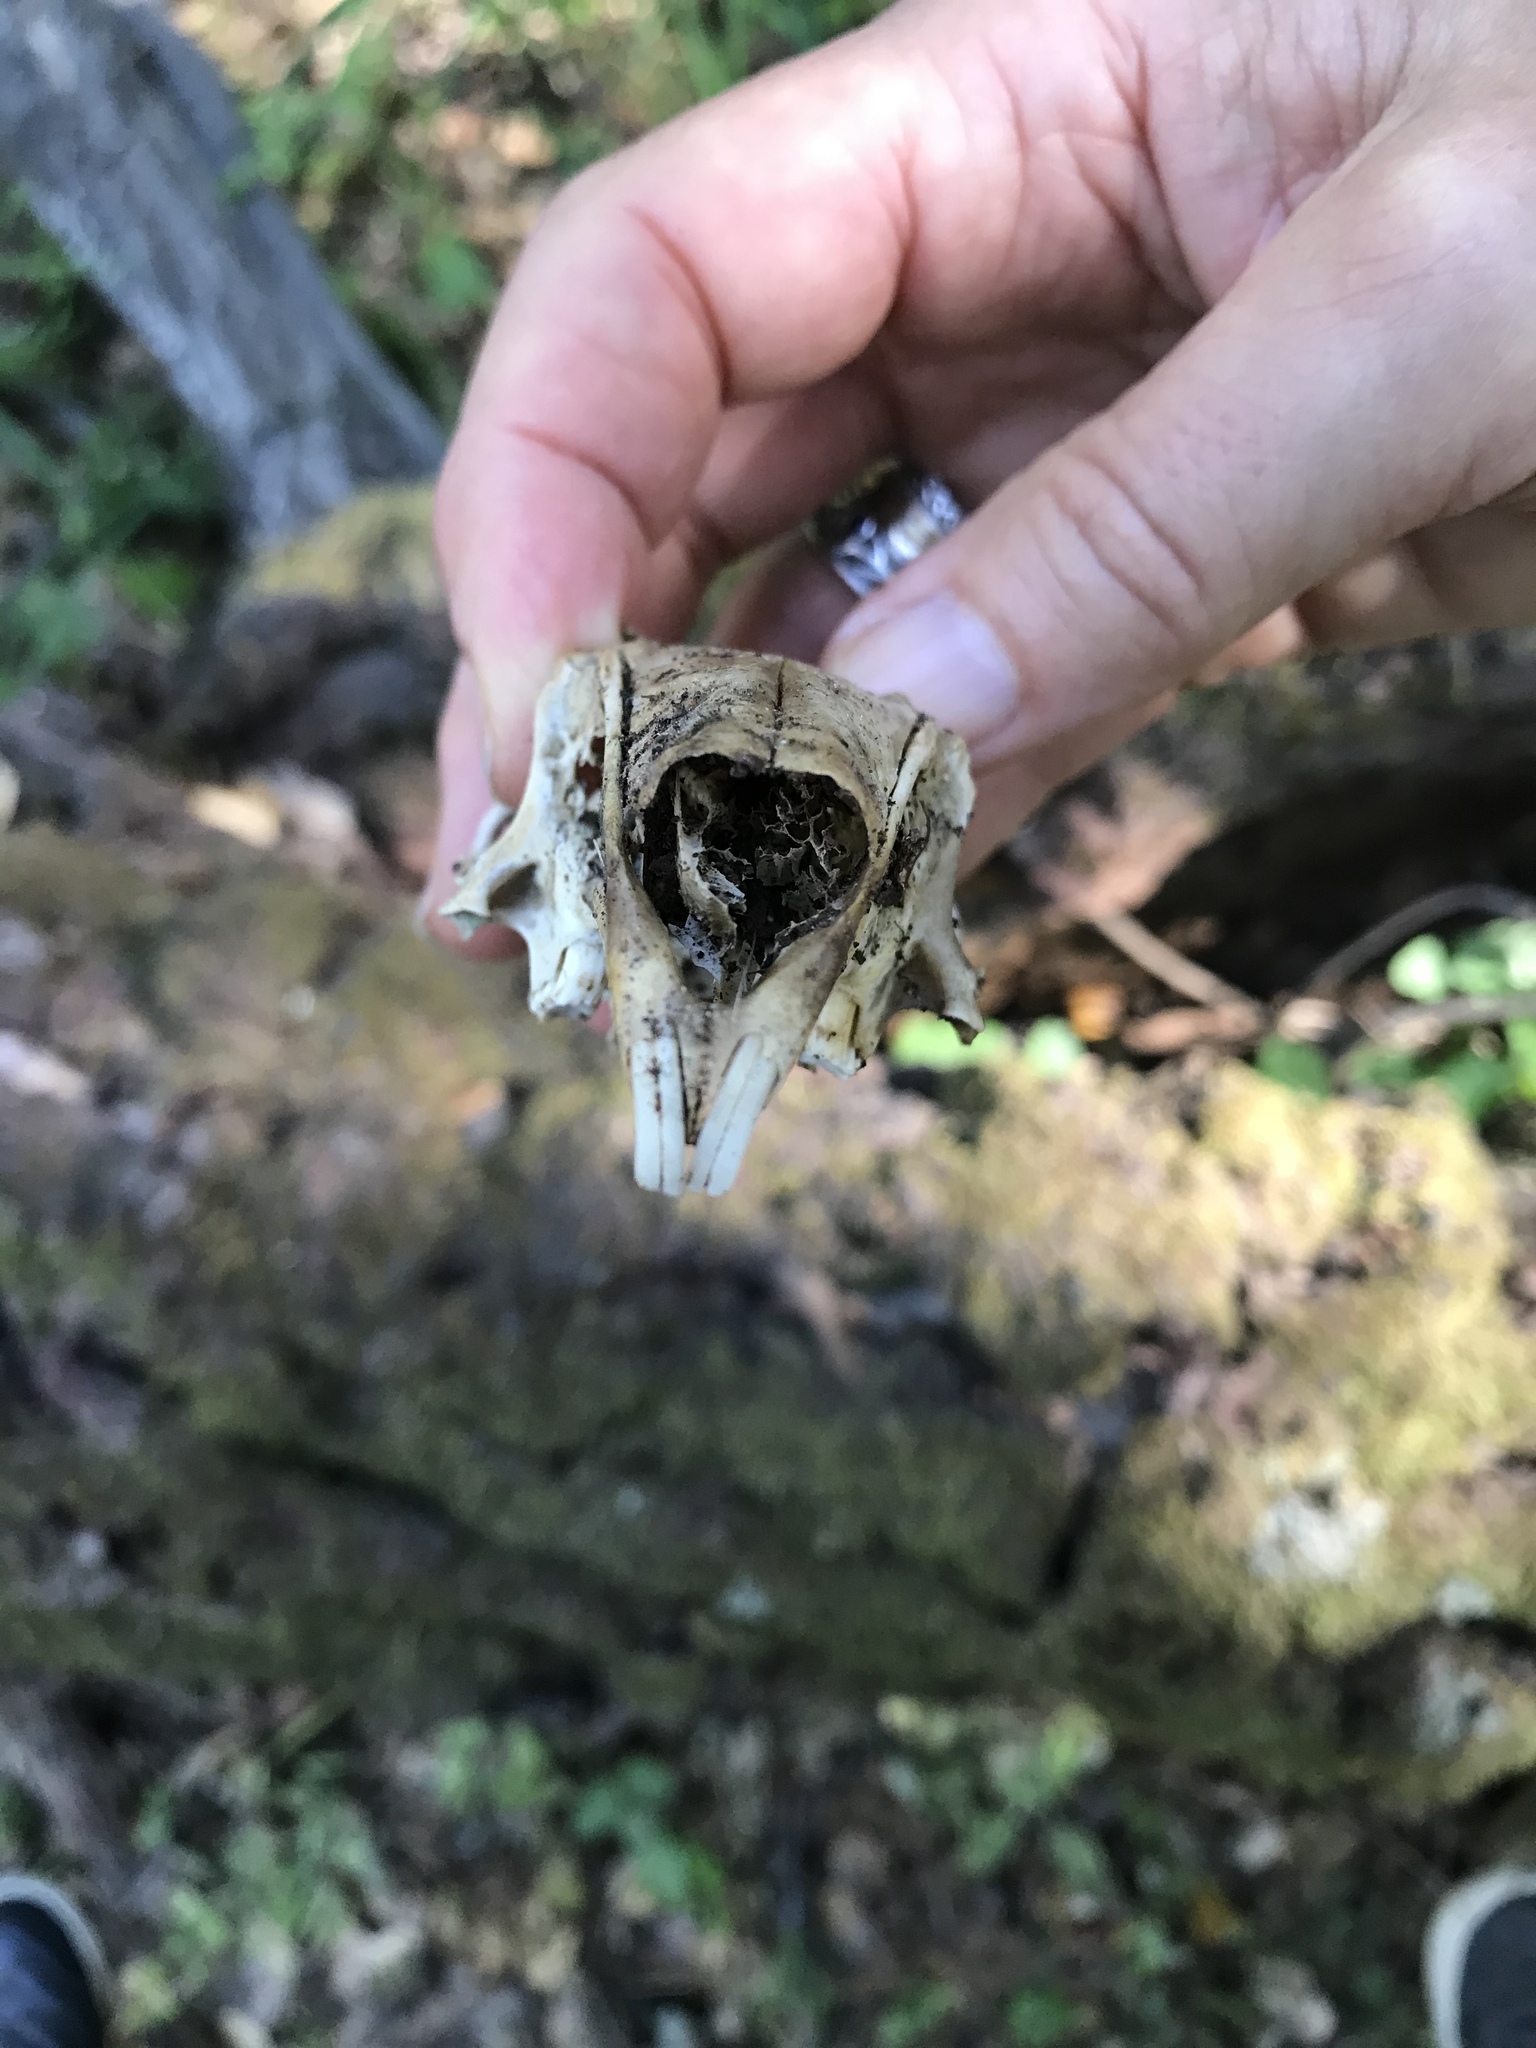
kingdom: Animalia
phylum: Chordata
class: Mammalia
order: Lagomorpha
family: Leporidae
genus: Lepus
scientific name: Lepus californicus
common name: Black-tailed jackrabbit
